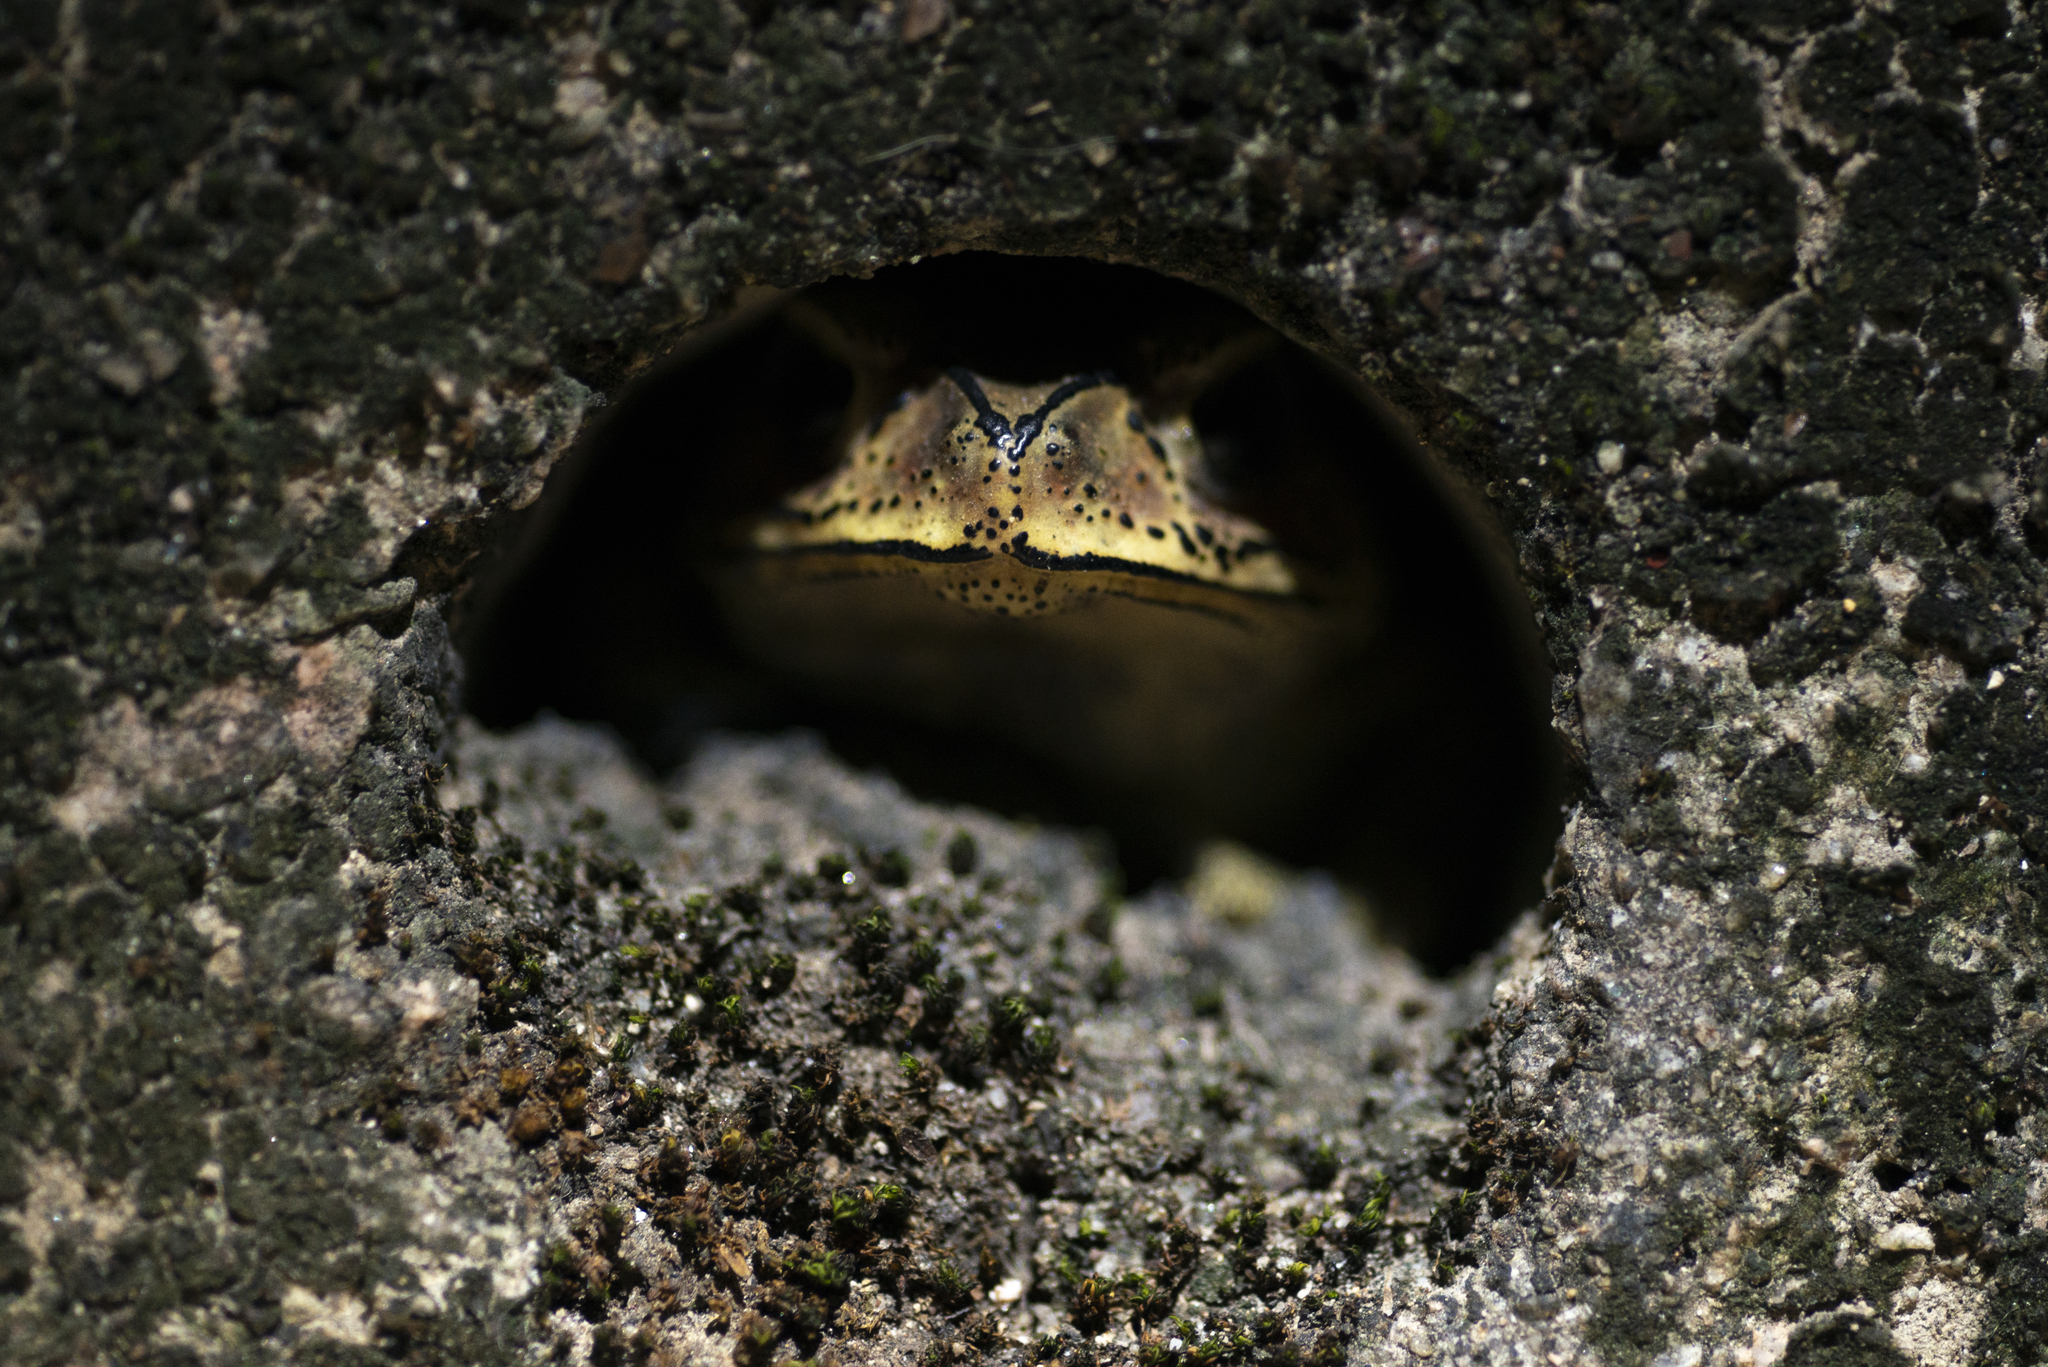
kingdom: Animalia
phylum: Chordata
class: Amphibia
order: Anura
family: Bufonidae
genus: Duttaphrynus
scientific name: Duttaphrynus melanostictus
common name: Common sunda toad
